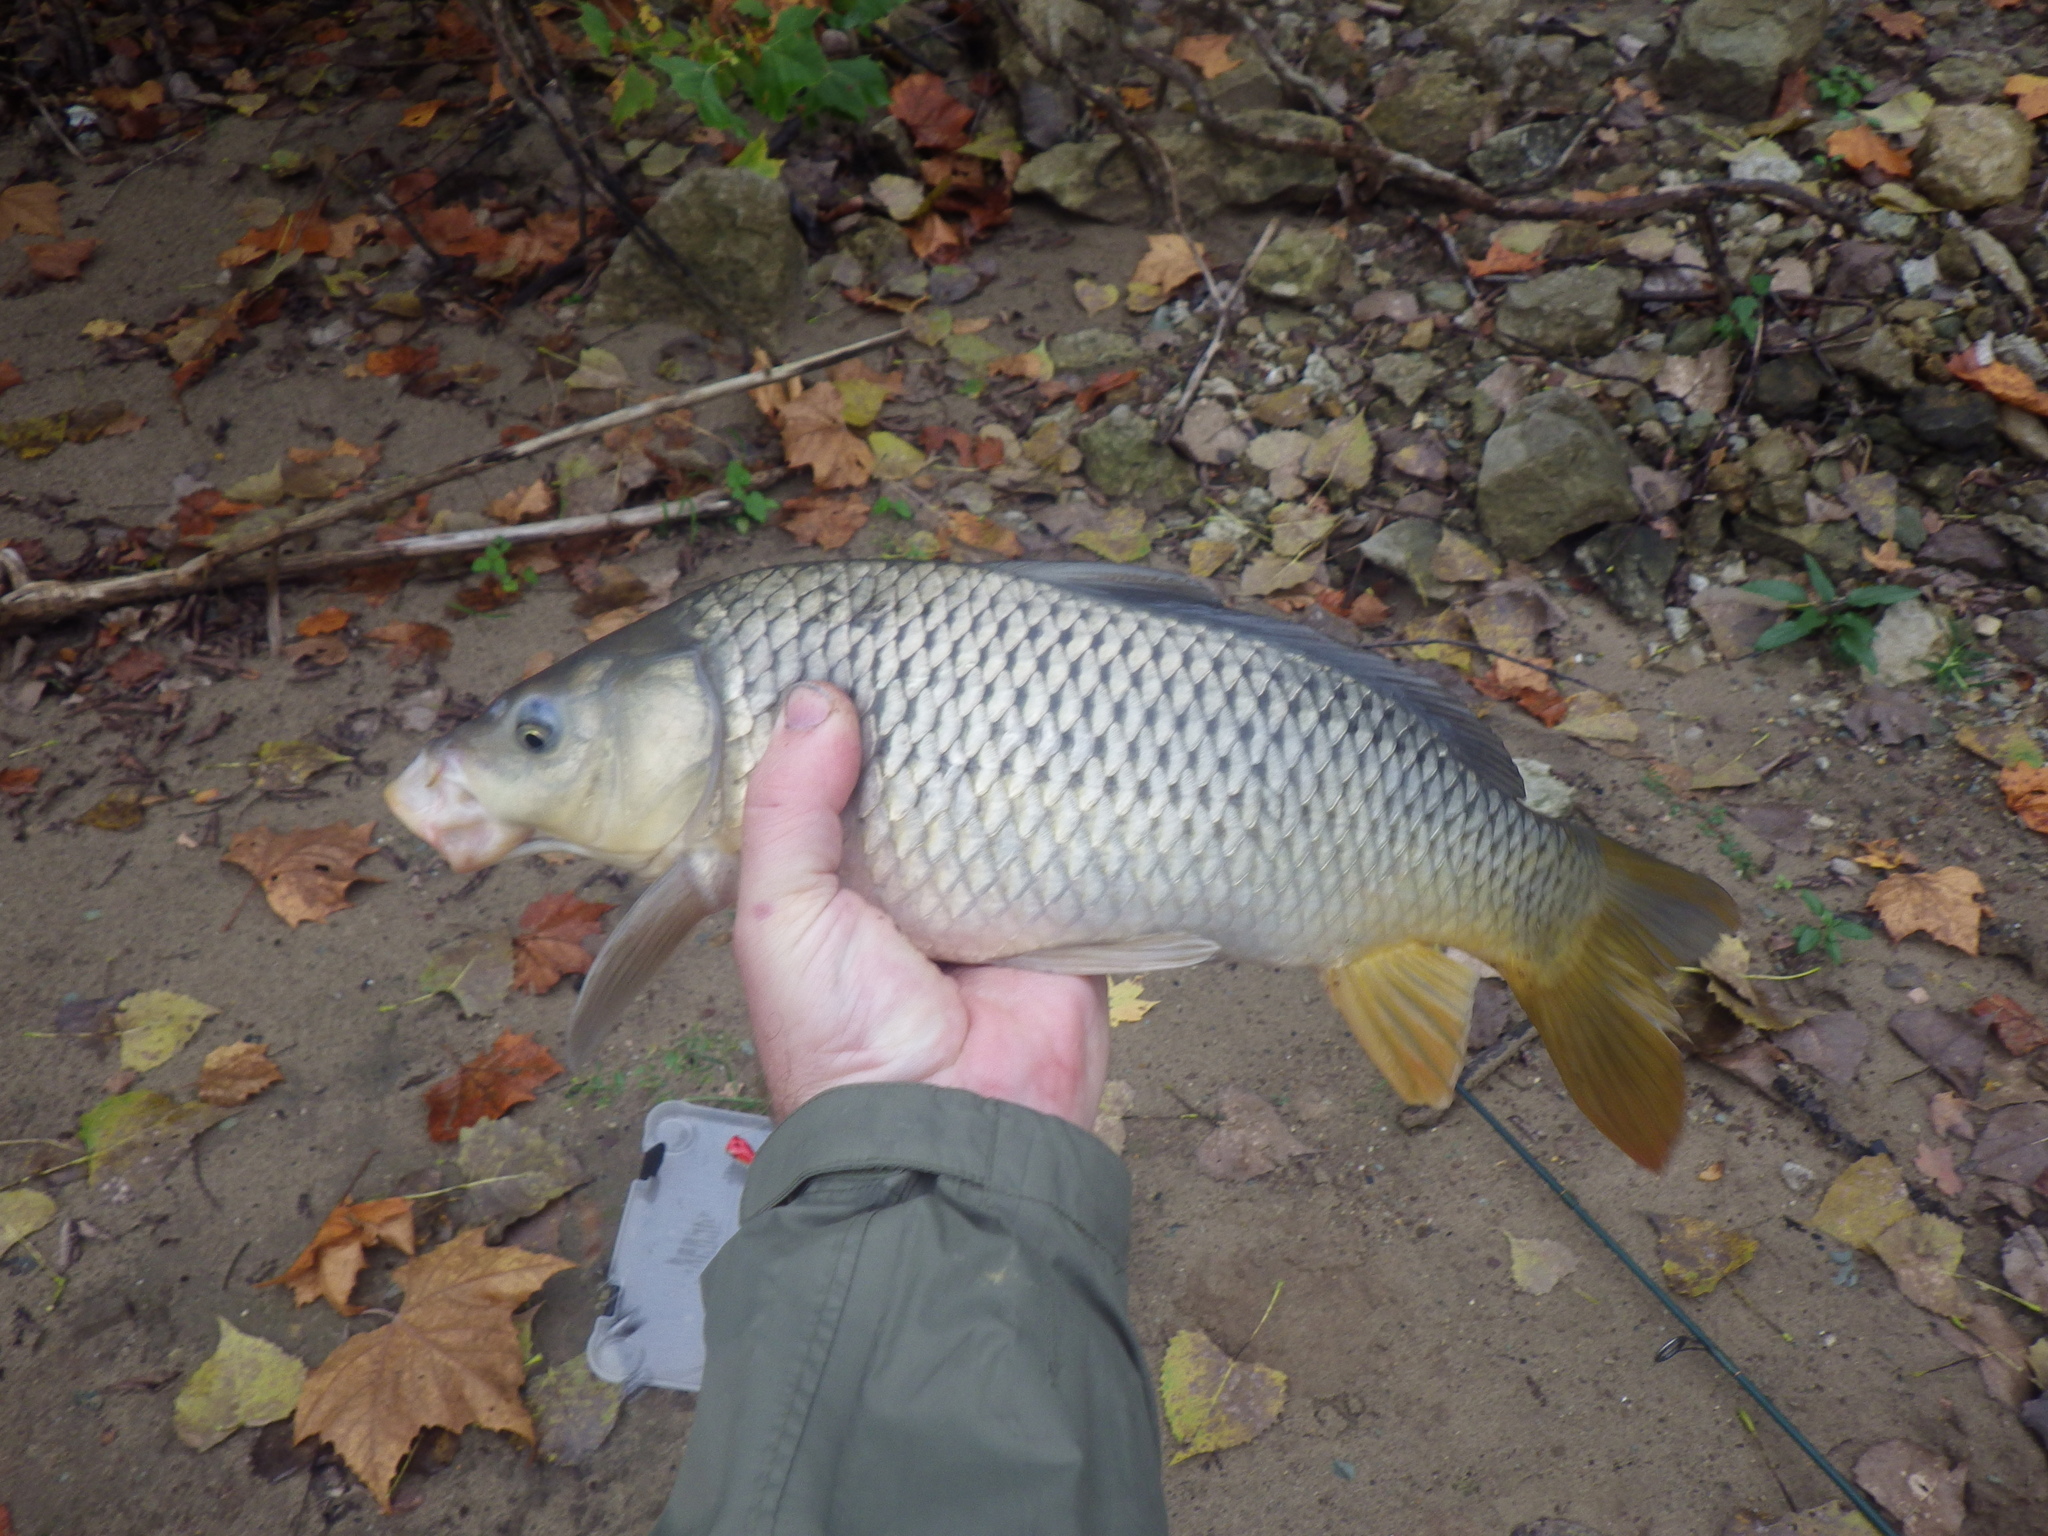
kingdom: Animalia
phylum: Chordata
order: Cypriniformes
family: Cyprinidae
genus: Cyprinus
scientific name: Cyprinus carpio
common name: Common carp
